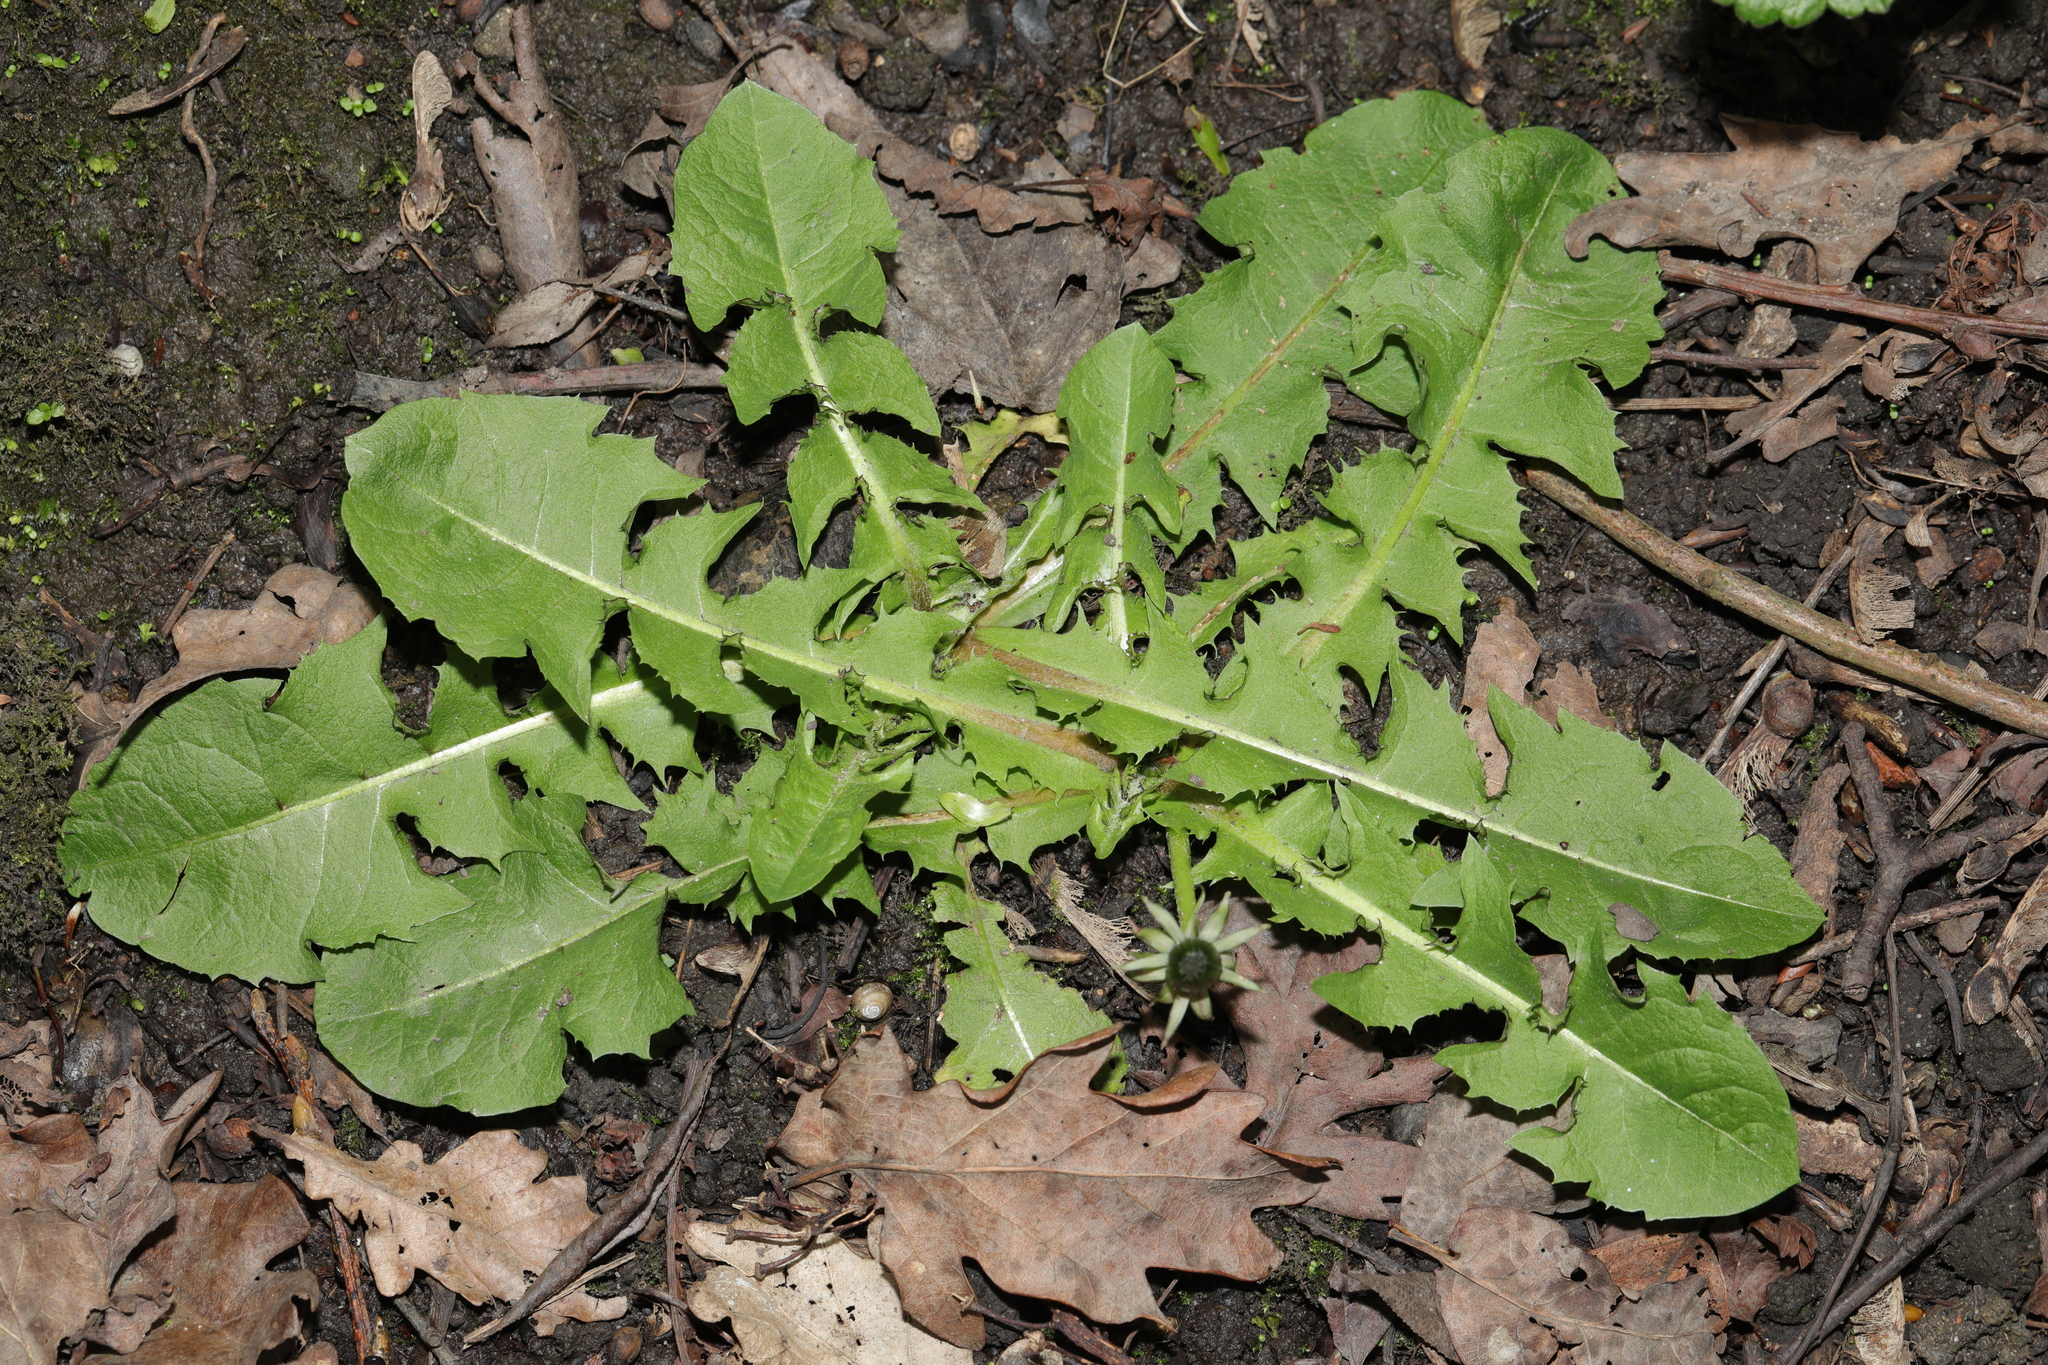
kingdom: Plantae
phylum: Tracheophyta
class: Magnoliopsida
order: Asterales
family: Asteraceae
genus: Taraxacum
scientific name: Taraxacum officinale
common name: Common dandelion
